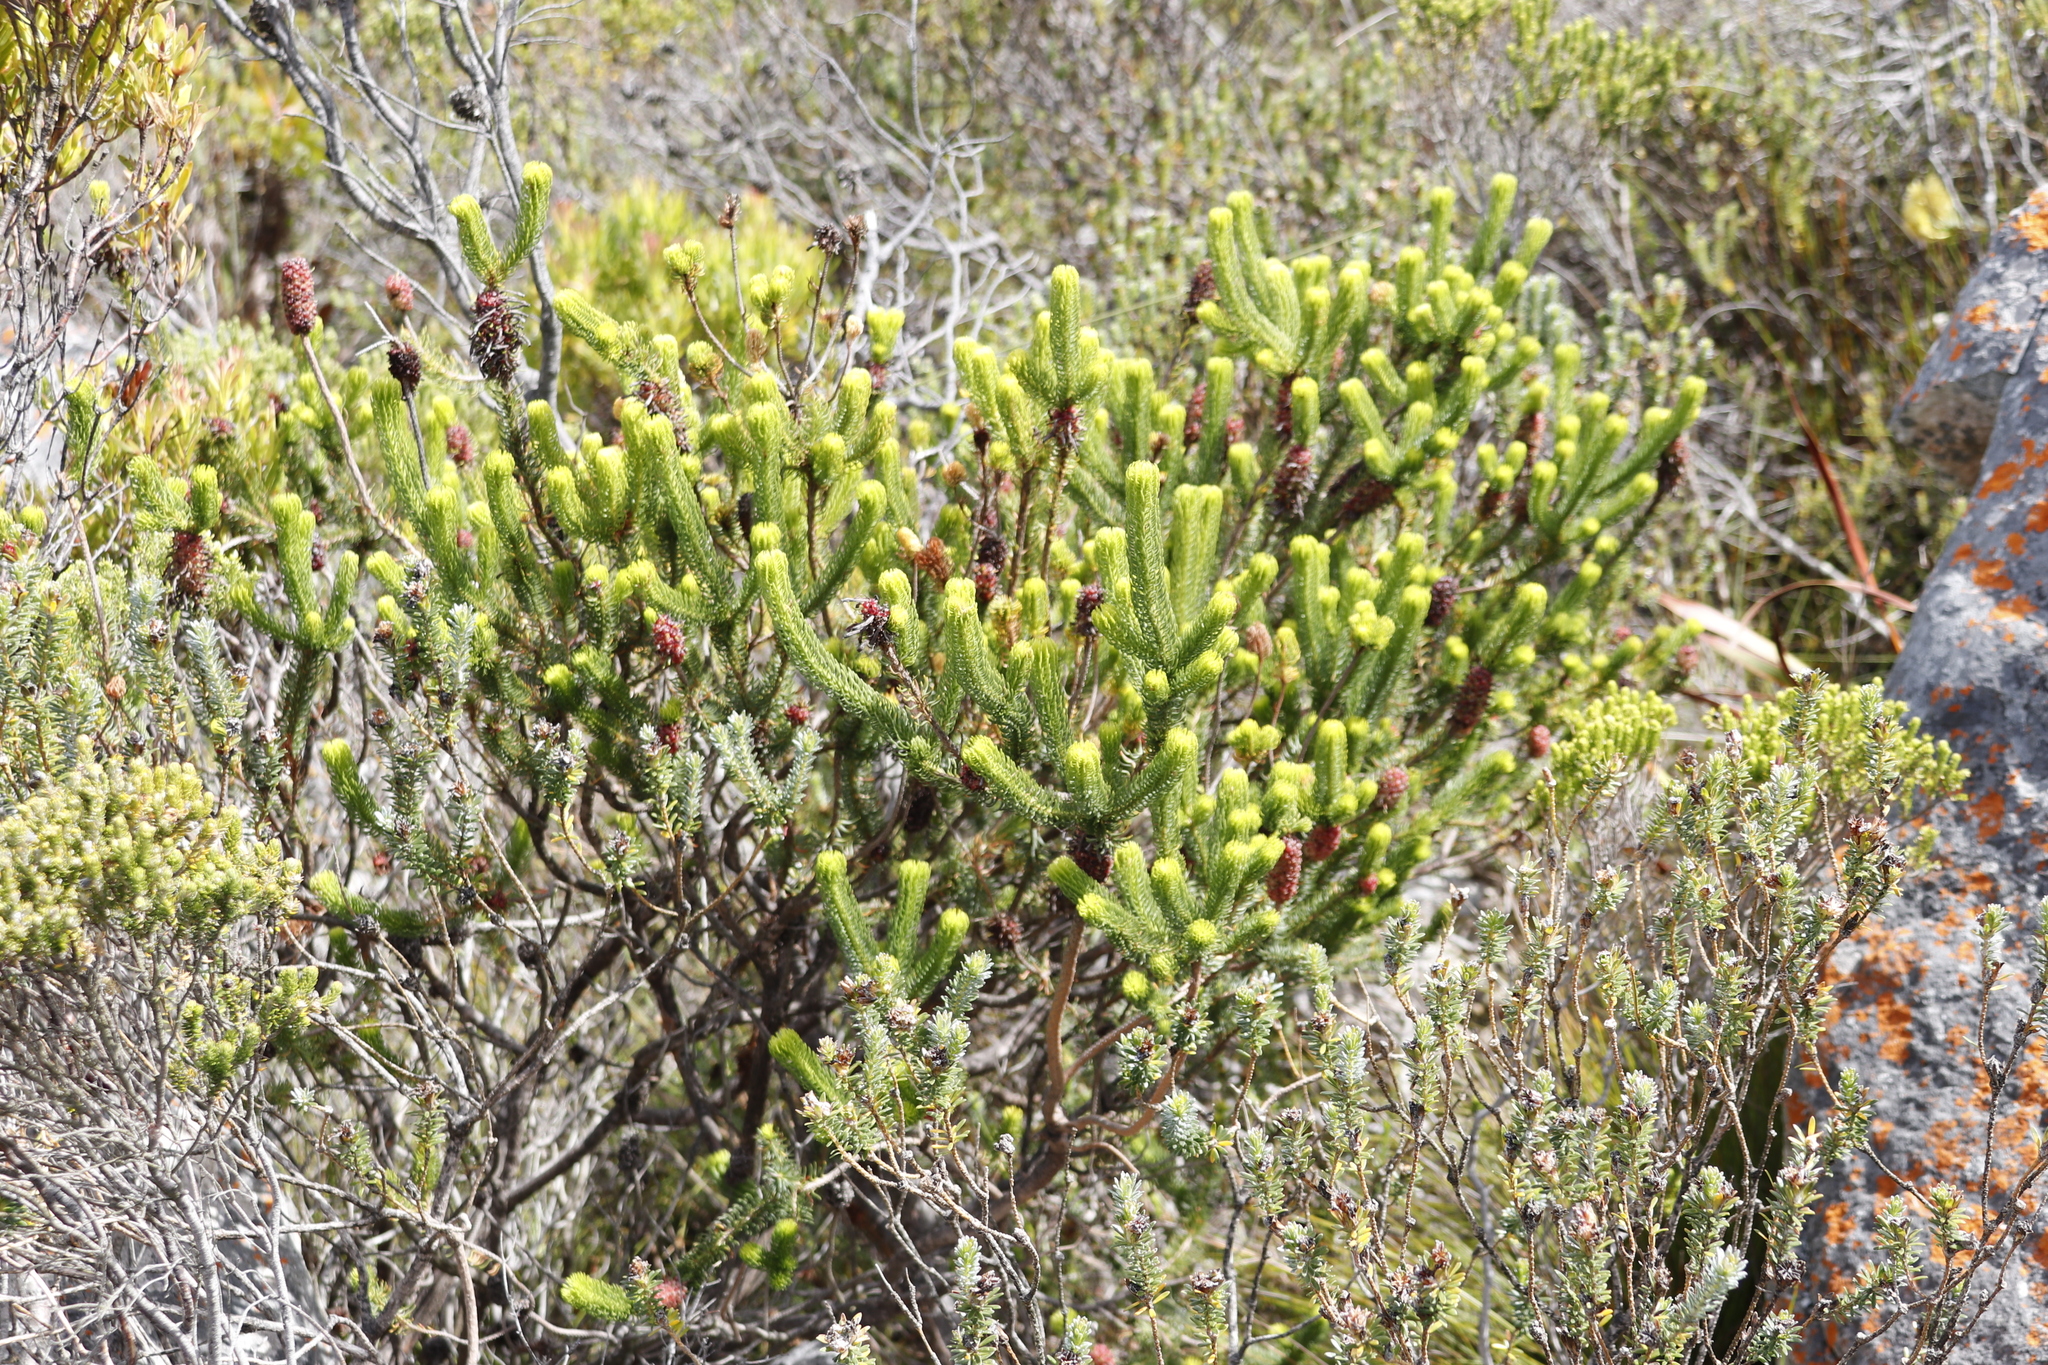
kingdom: Plantae
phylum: Tracheophyta
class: Magnoliopsida
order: Ericales
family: Ericaceae
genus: Erica
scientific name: Erica sessiliflora
